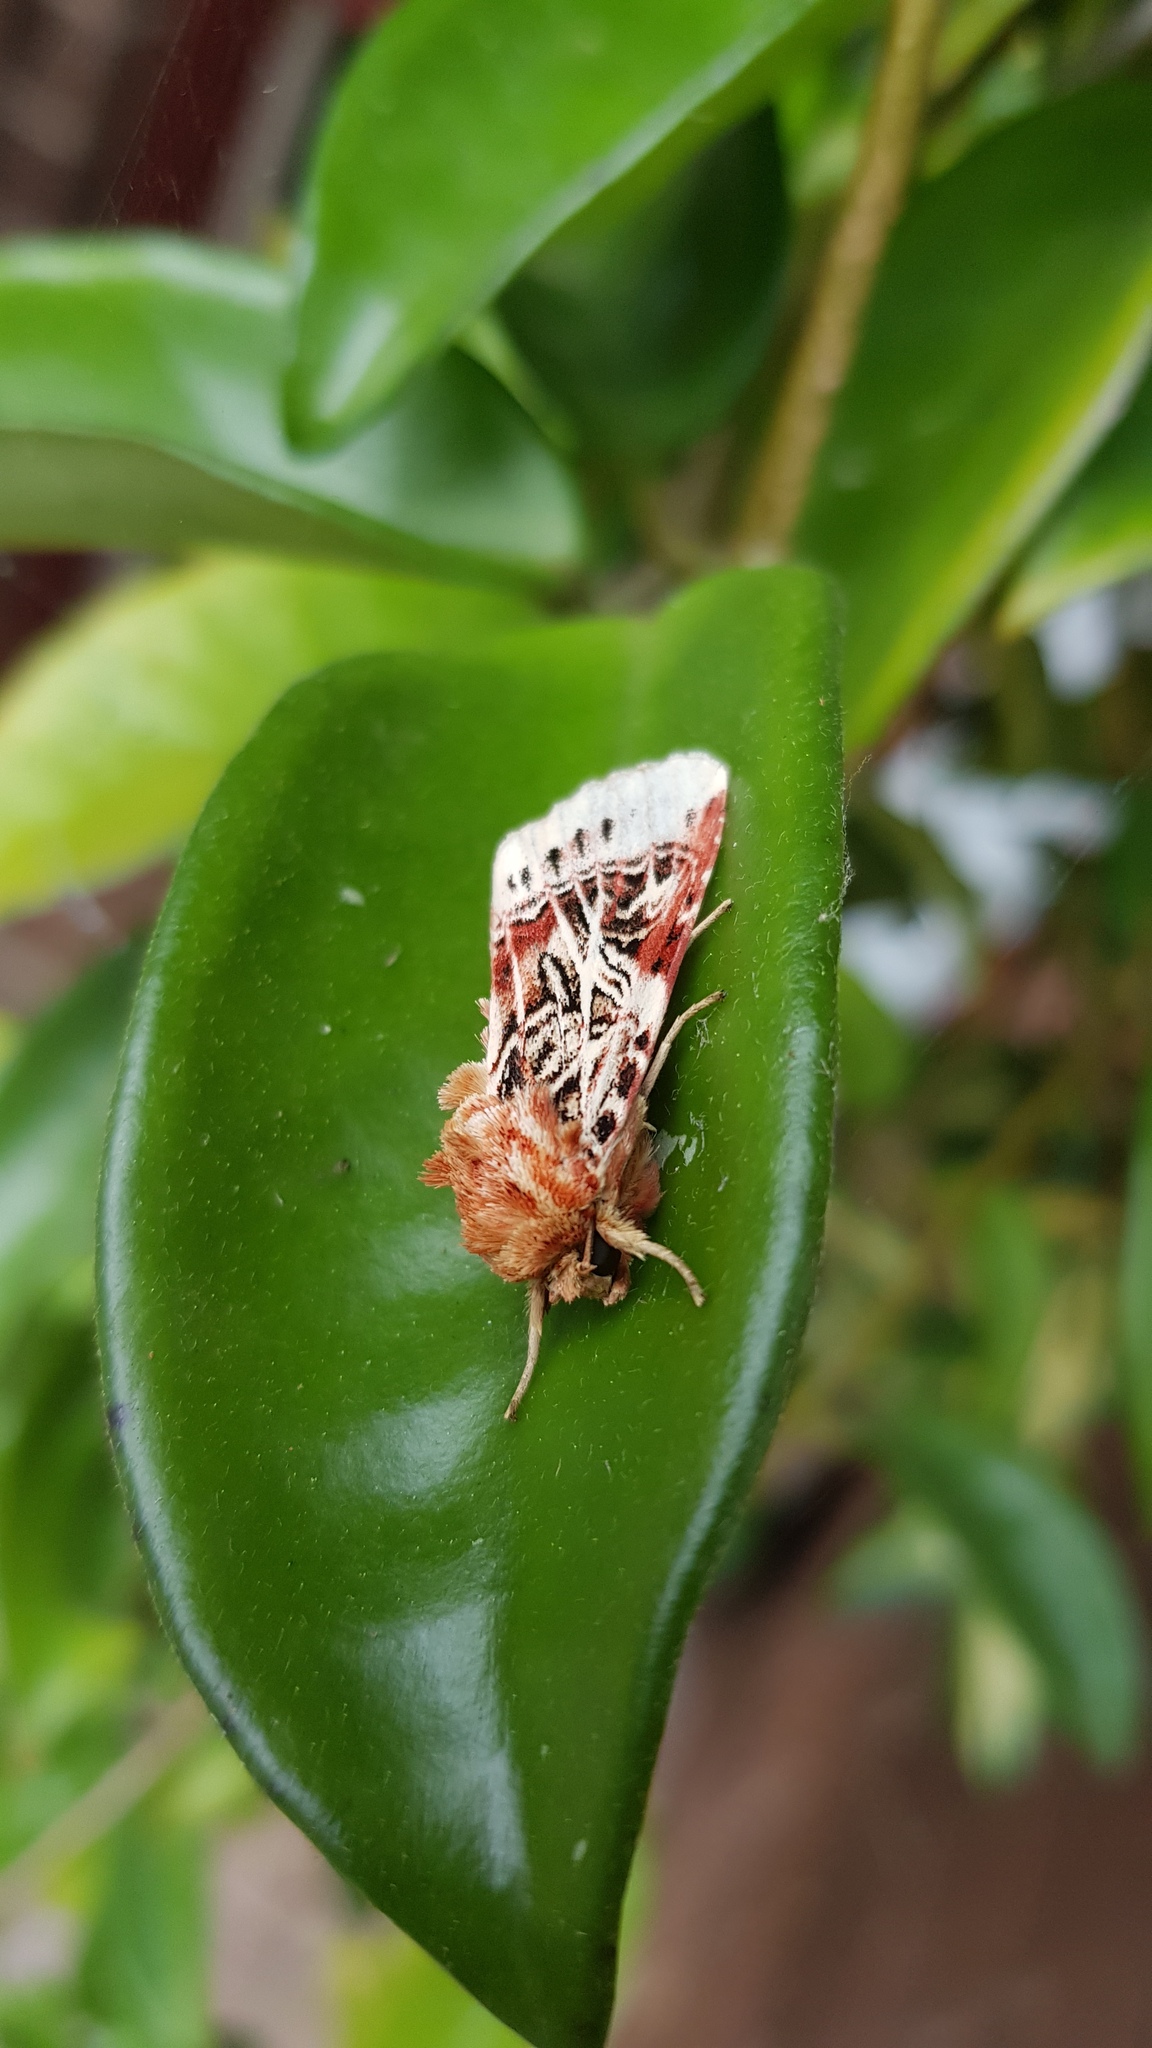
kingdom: Animalia
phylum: Arthropoda
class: Insecta
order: Lepidoptera
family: Noctuidae
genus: Spodoptera
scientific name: Spodoptera picta
